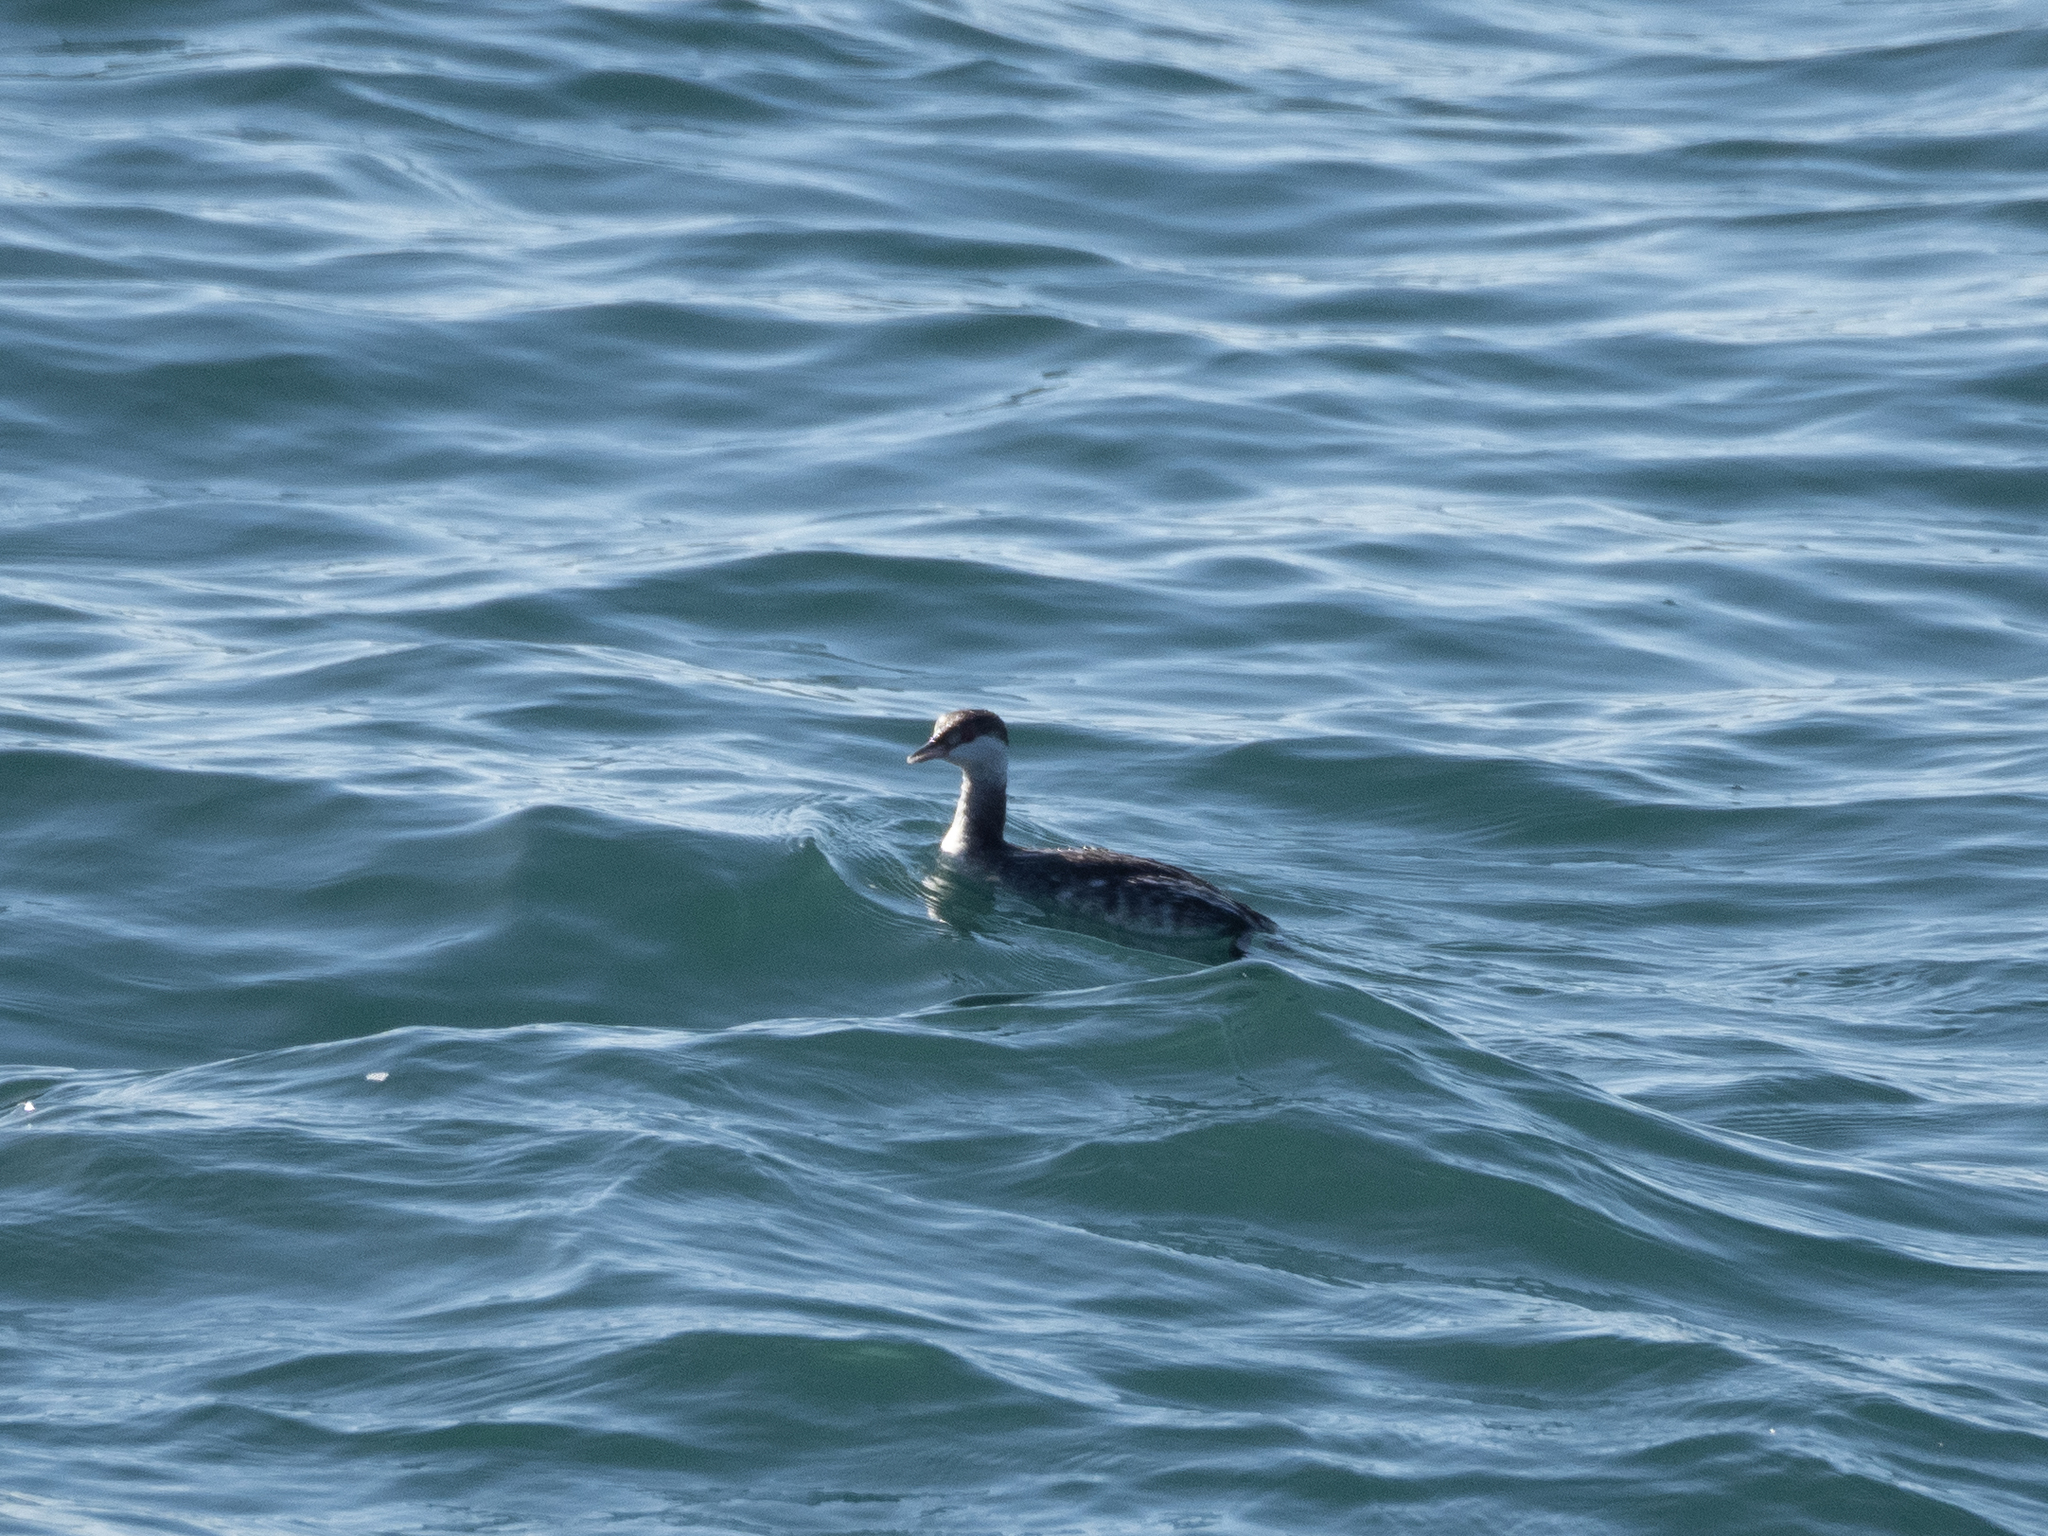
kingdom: Animalia
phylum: Chordata
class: Aves
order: Podicipediformes
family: Podicipedidae
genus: Podiceps
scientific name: Podiceps auritus
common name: Horned grebe
